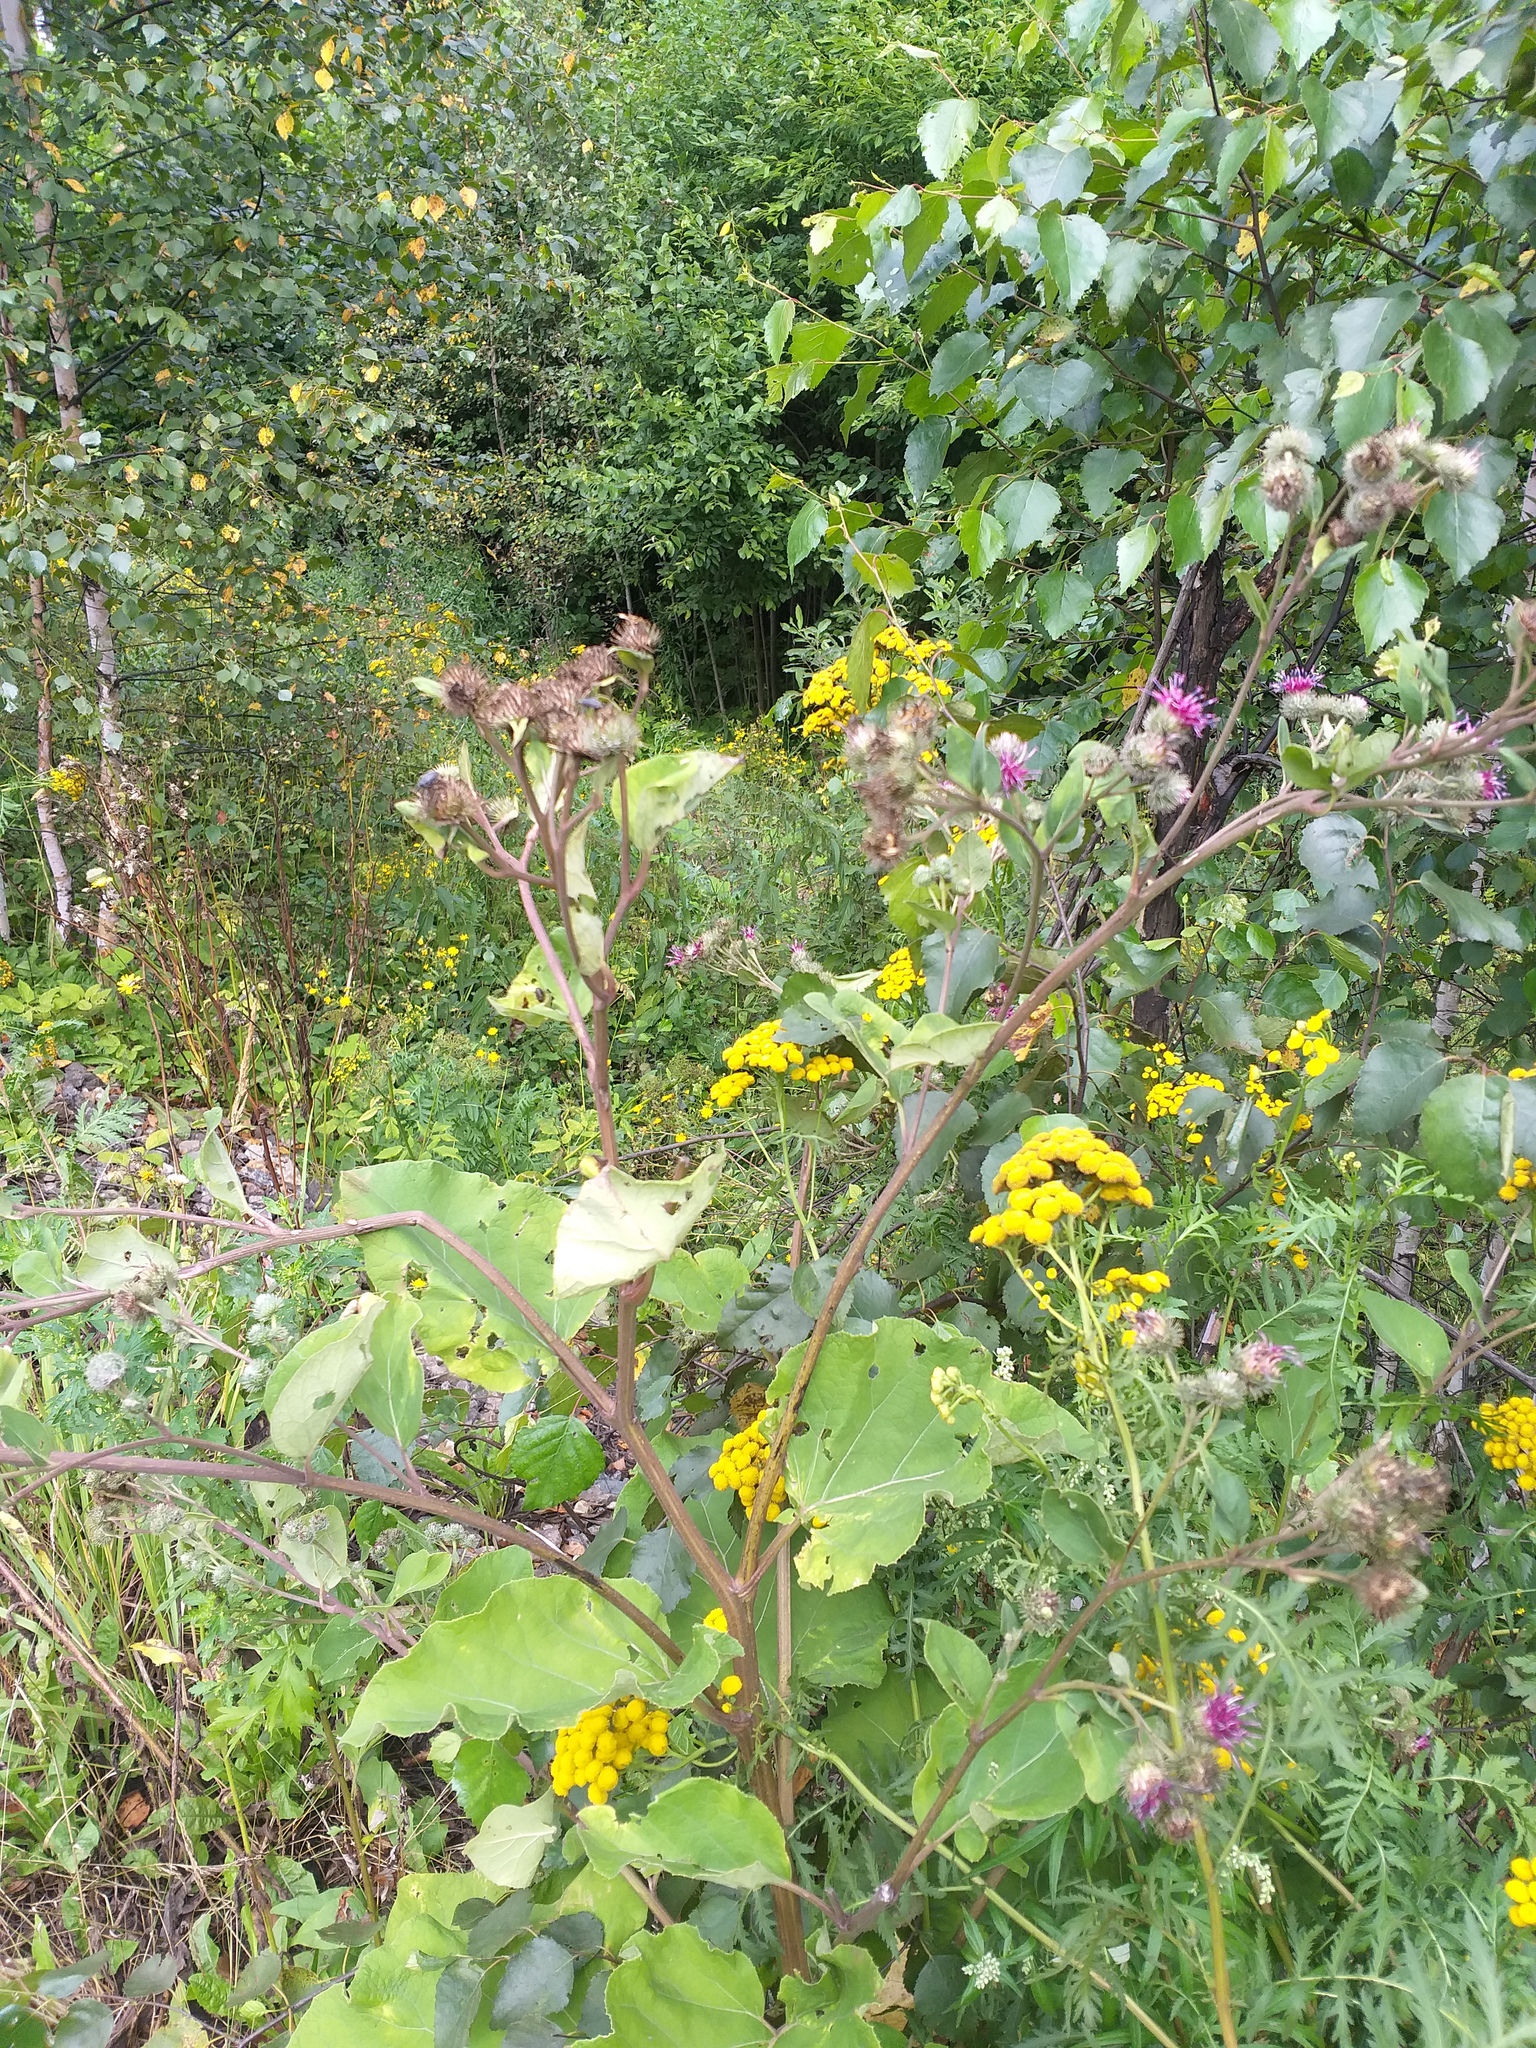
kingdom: Plantae
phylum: Tracheophyta
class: Magnoliopsida
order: Asterales
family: Asteraceae
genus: Arctium
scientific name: Arctium tomentosum
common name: Woolly burdock
